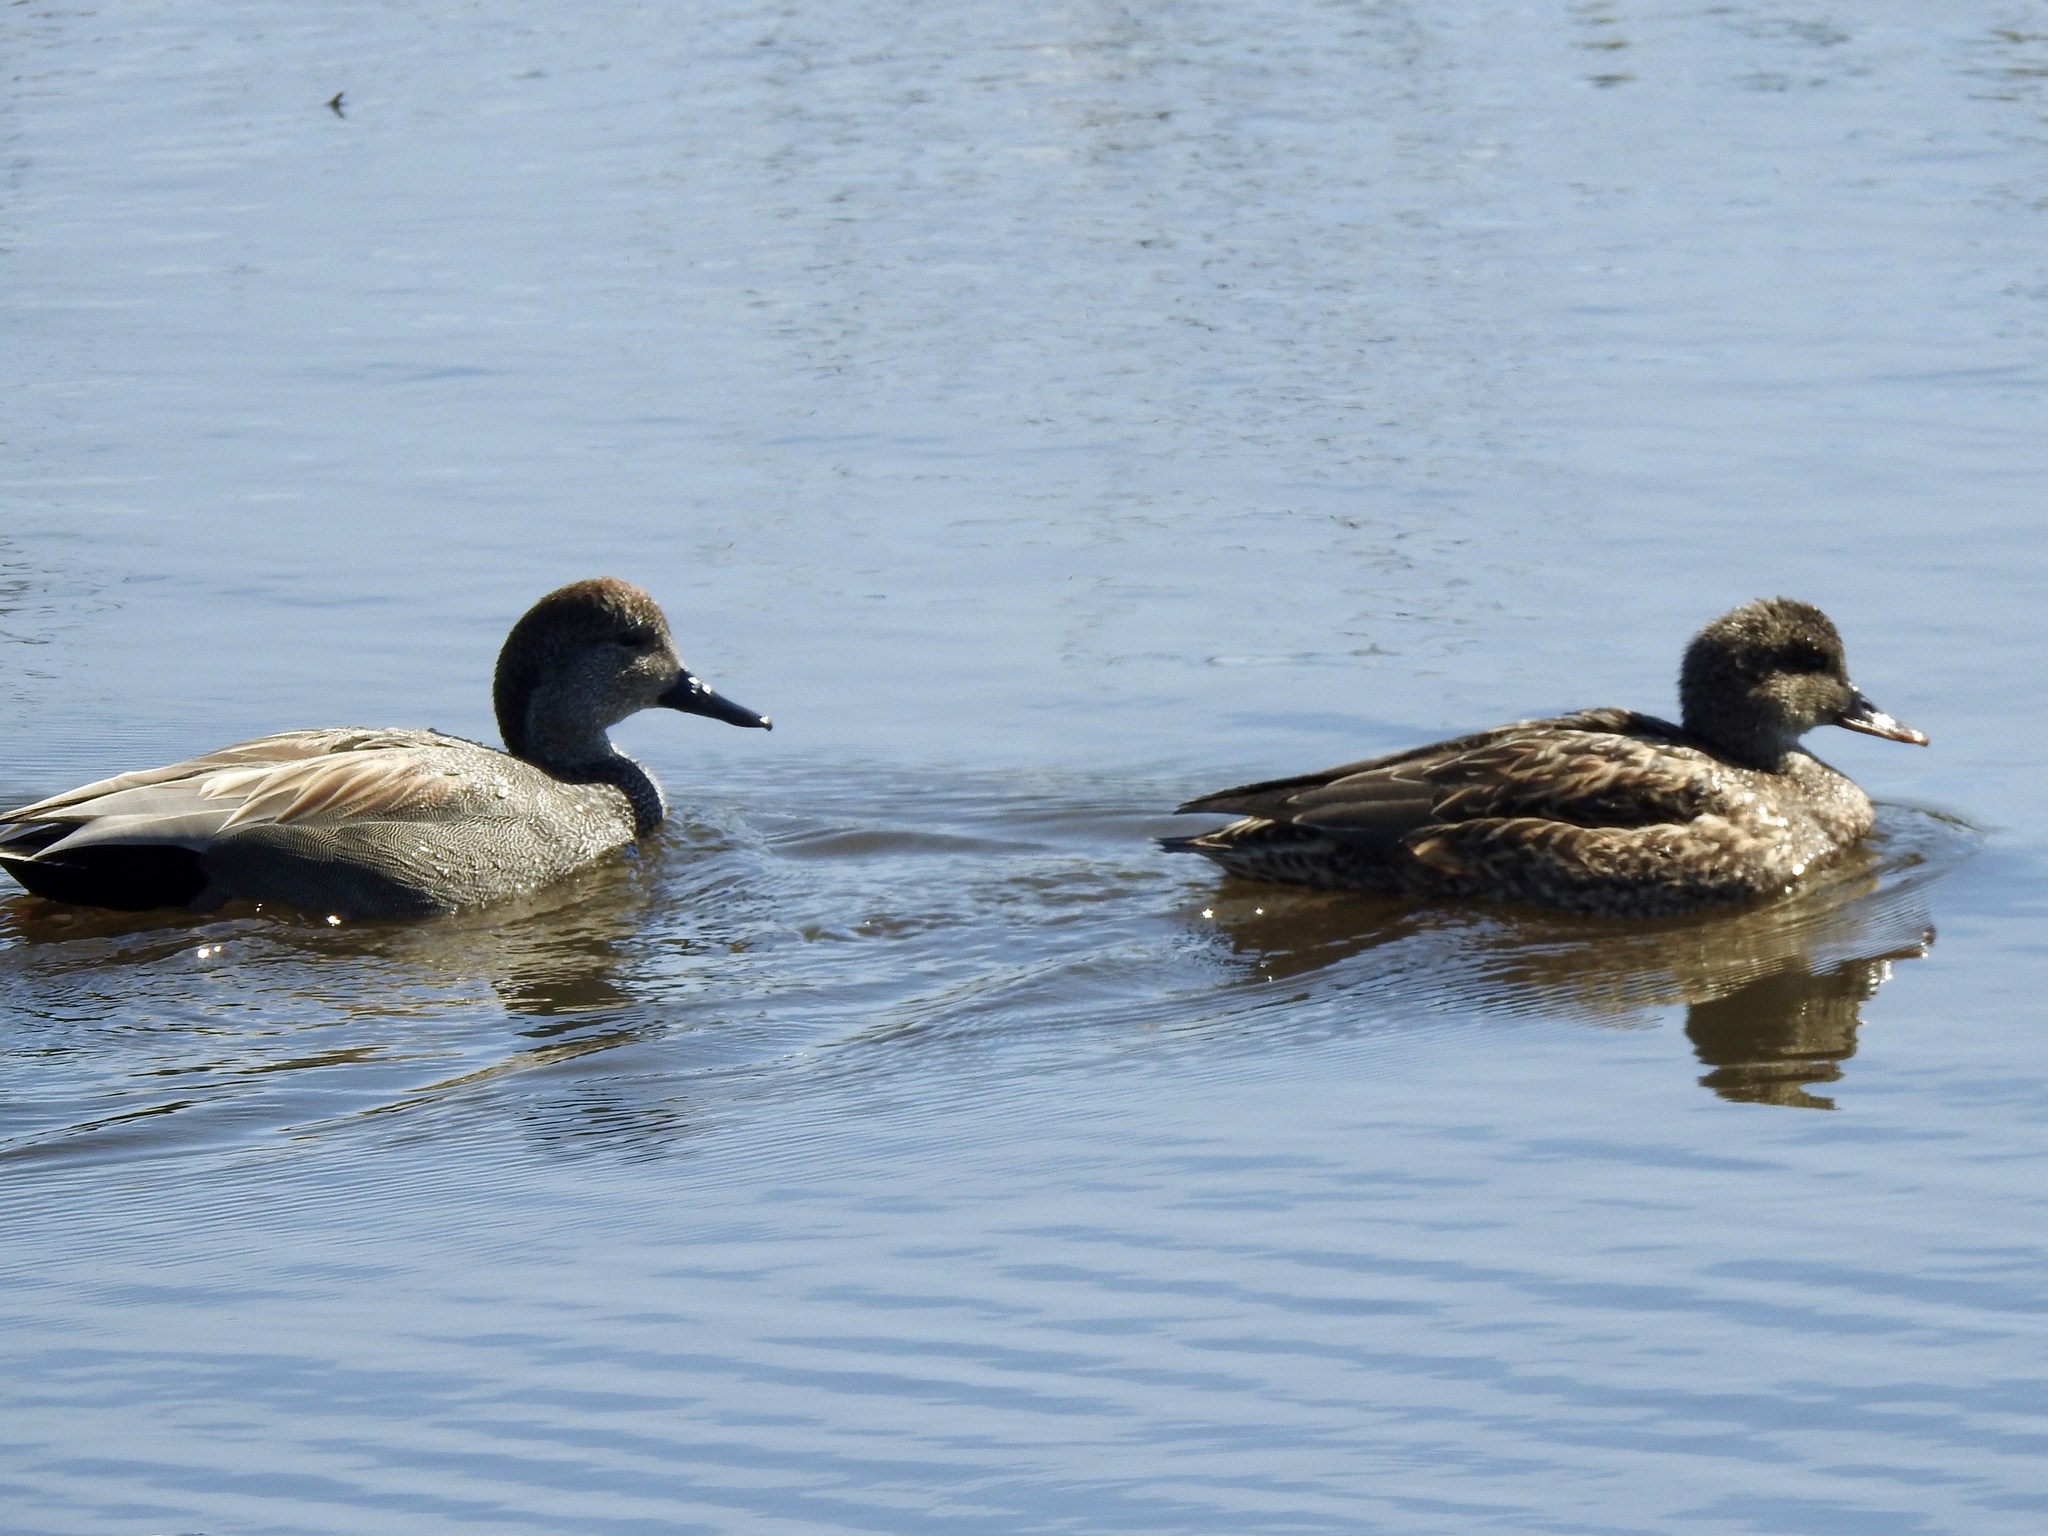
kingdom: Animalia
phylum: Chordata
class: Aves
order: Anseriformes
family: Anatidae
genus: Mareca
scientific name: Mareca strepera
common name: Gadwall
